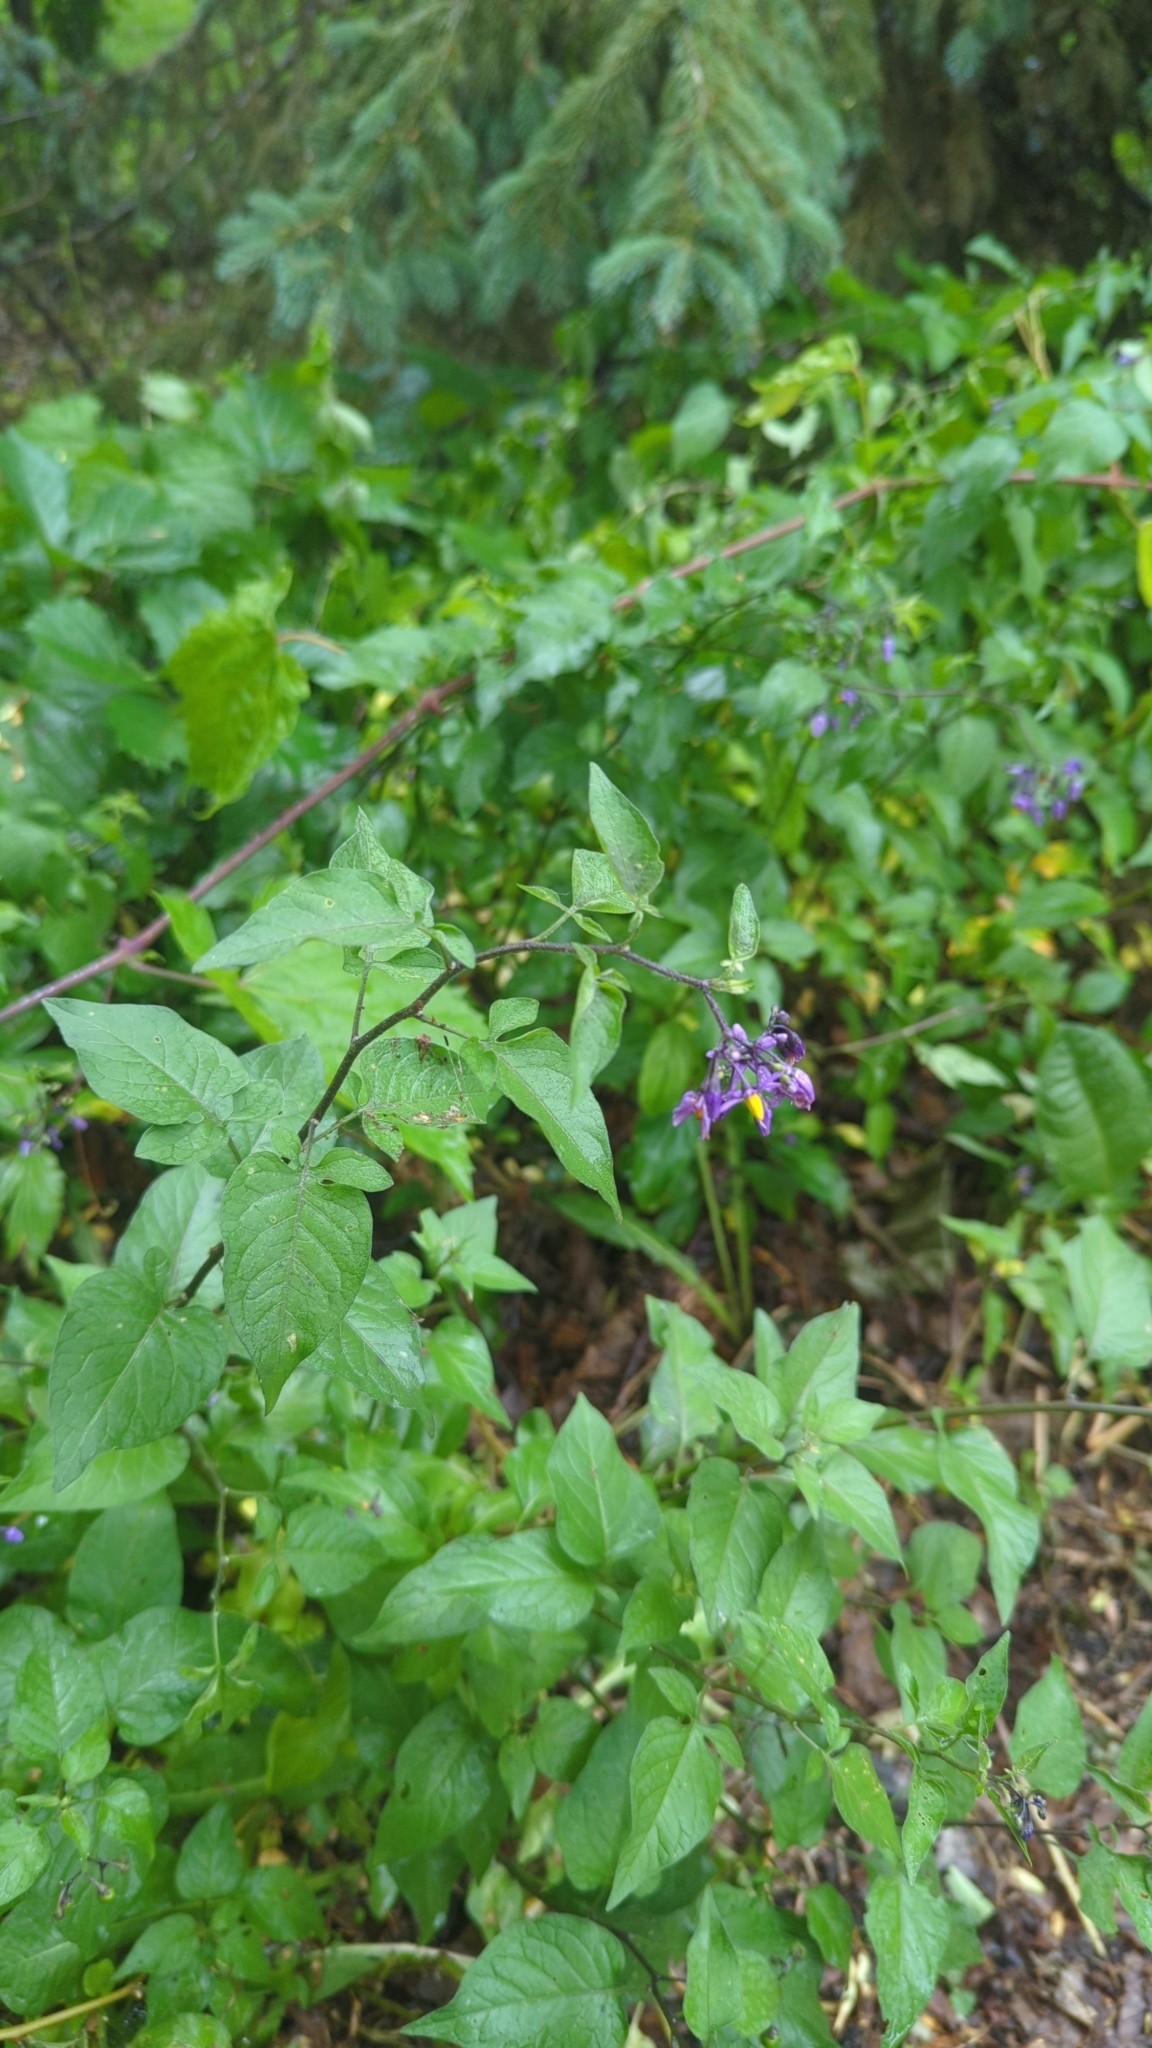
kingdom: Plantae
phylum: Tracheophyta
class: Magnoliopsida
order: Solanales
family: Solanaceae
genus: Solanum
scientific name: Solanum dulcamara
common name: Climbing nightshade
